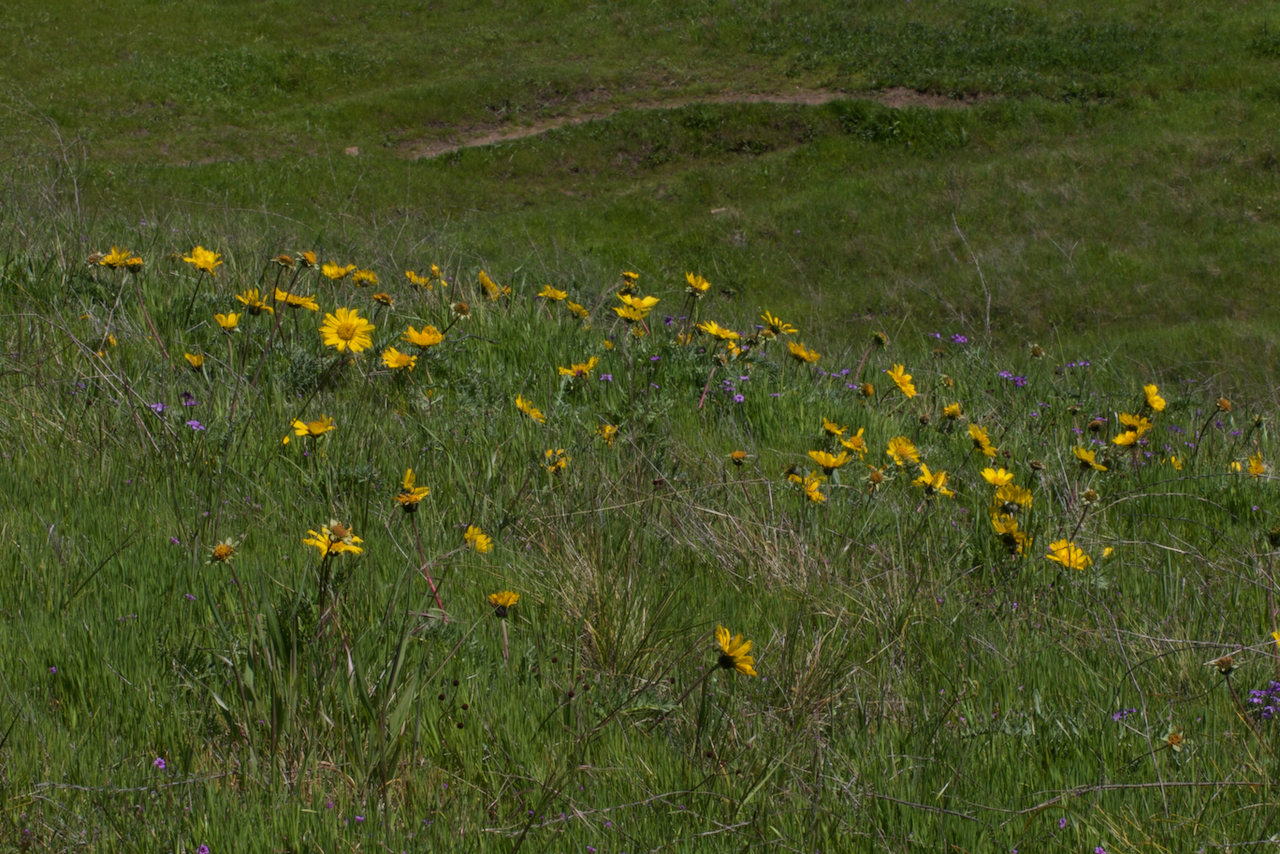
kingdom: Plantae
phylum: Tracheophyta
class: Magnoliopsida
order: Asterales
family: Asteraceae
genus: Balsamorhiza
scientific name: Balsamorhiza macrolepis
